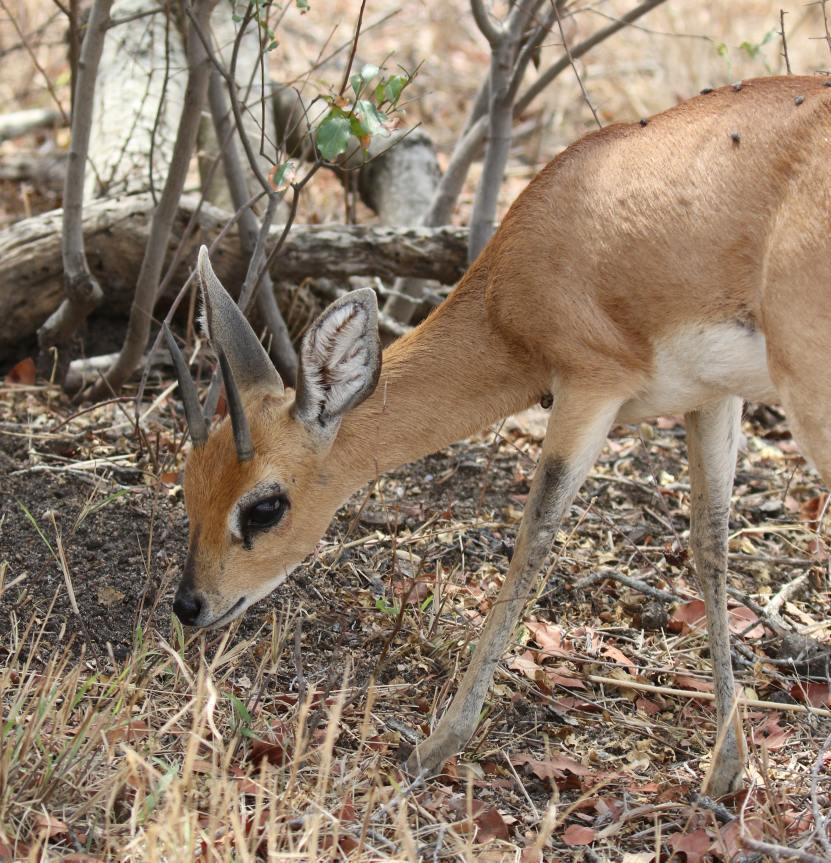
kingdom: Animalia
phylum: Chordata
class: Mammalia
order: Artiodactyla
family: Bovidae
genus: Raphicerus
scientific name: Raphicerus campestris
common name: Steenbok
